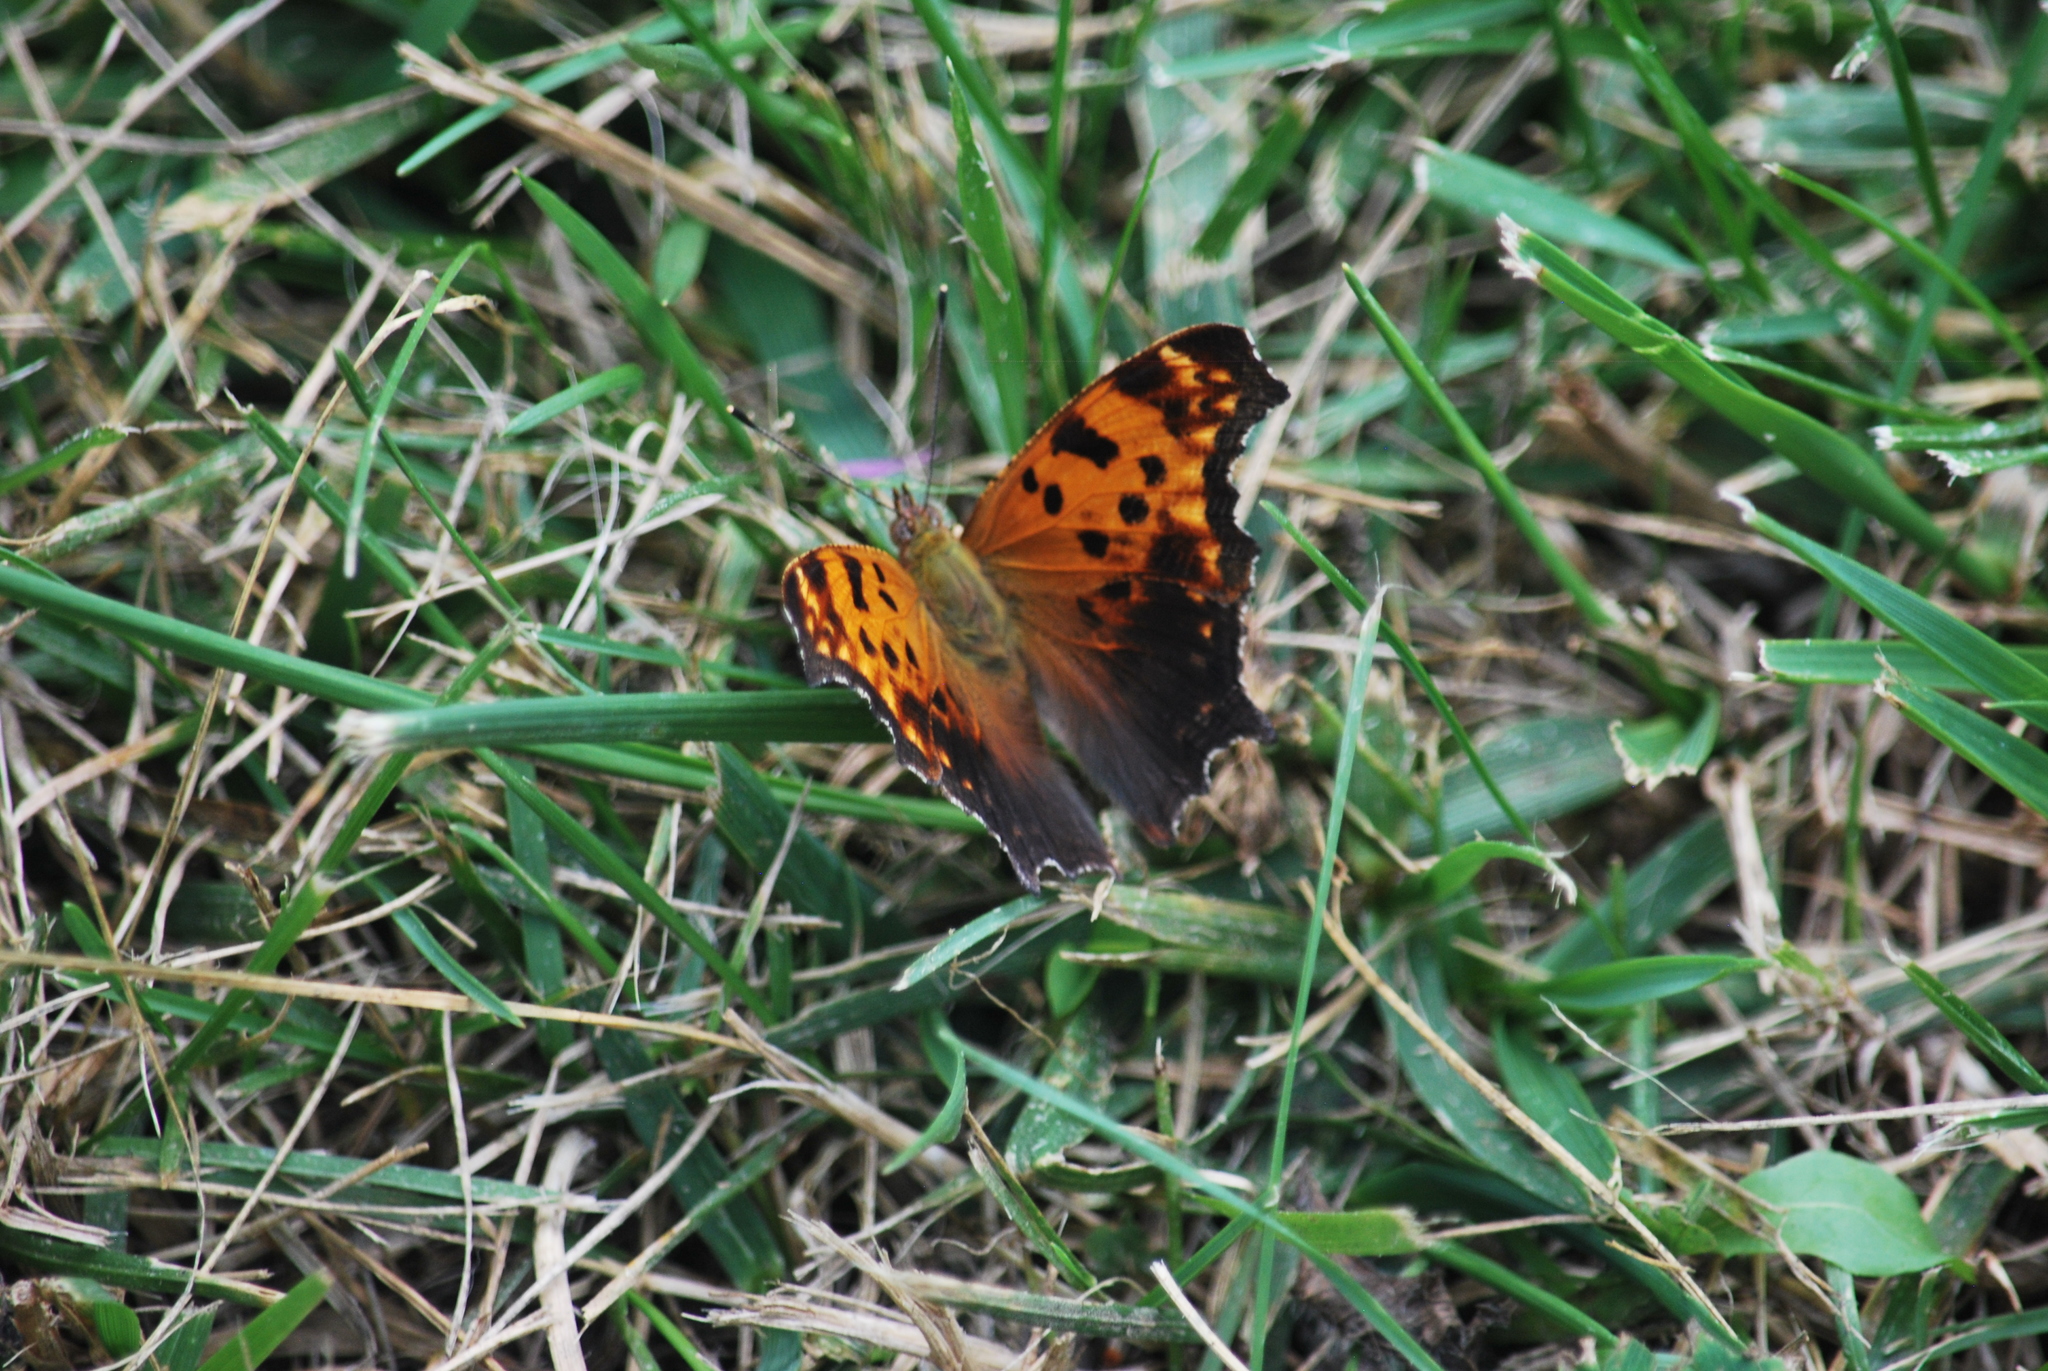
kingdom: Animalia
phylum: Arthropoda
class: Insecta
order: Lepidoptera
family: Nymphalidae
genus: Polygonia
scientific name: Polygonia comma
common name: Eastern comma
